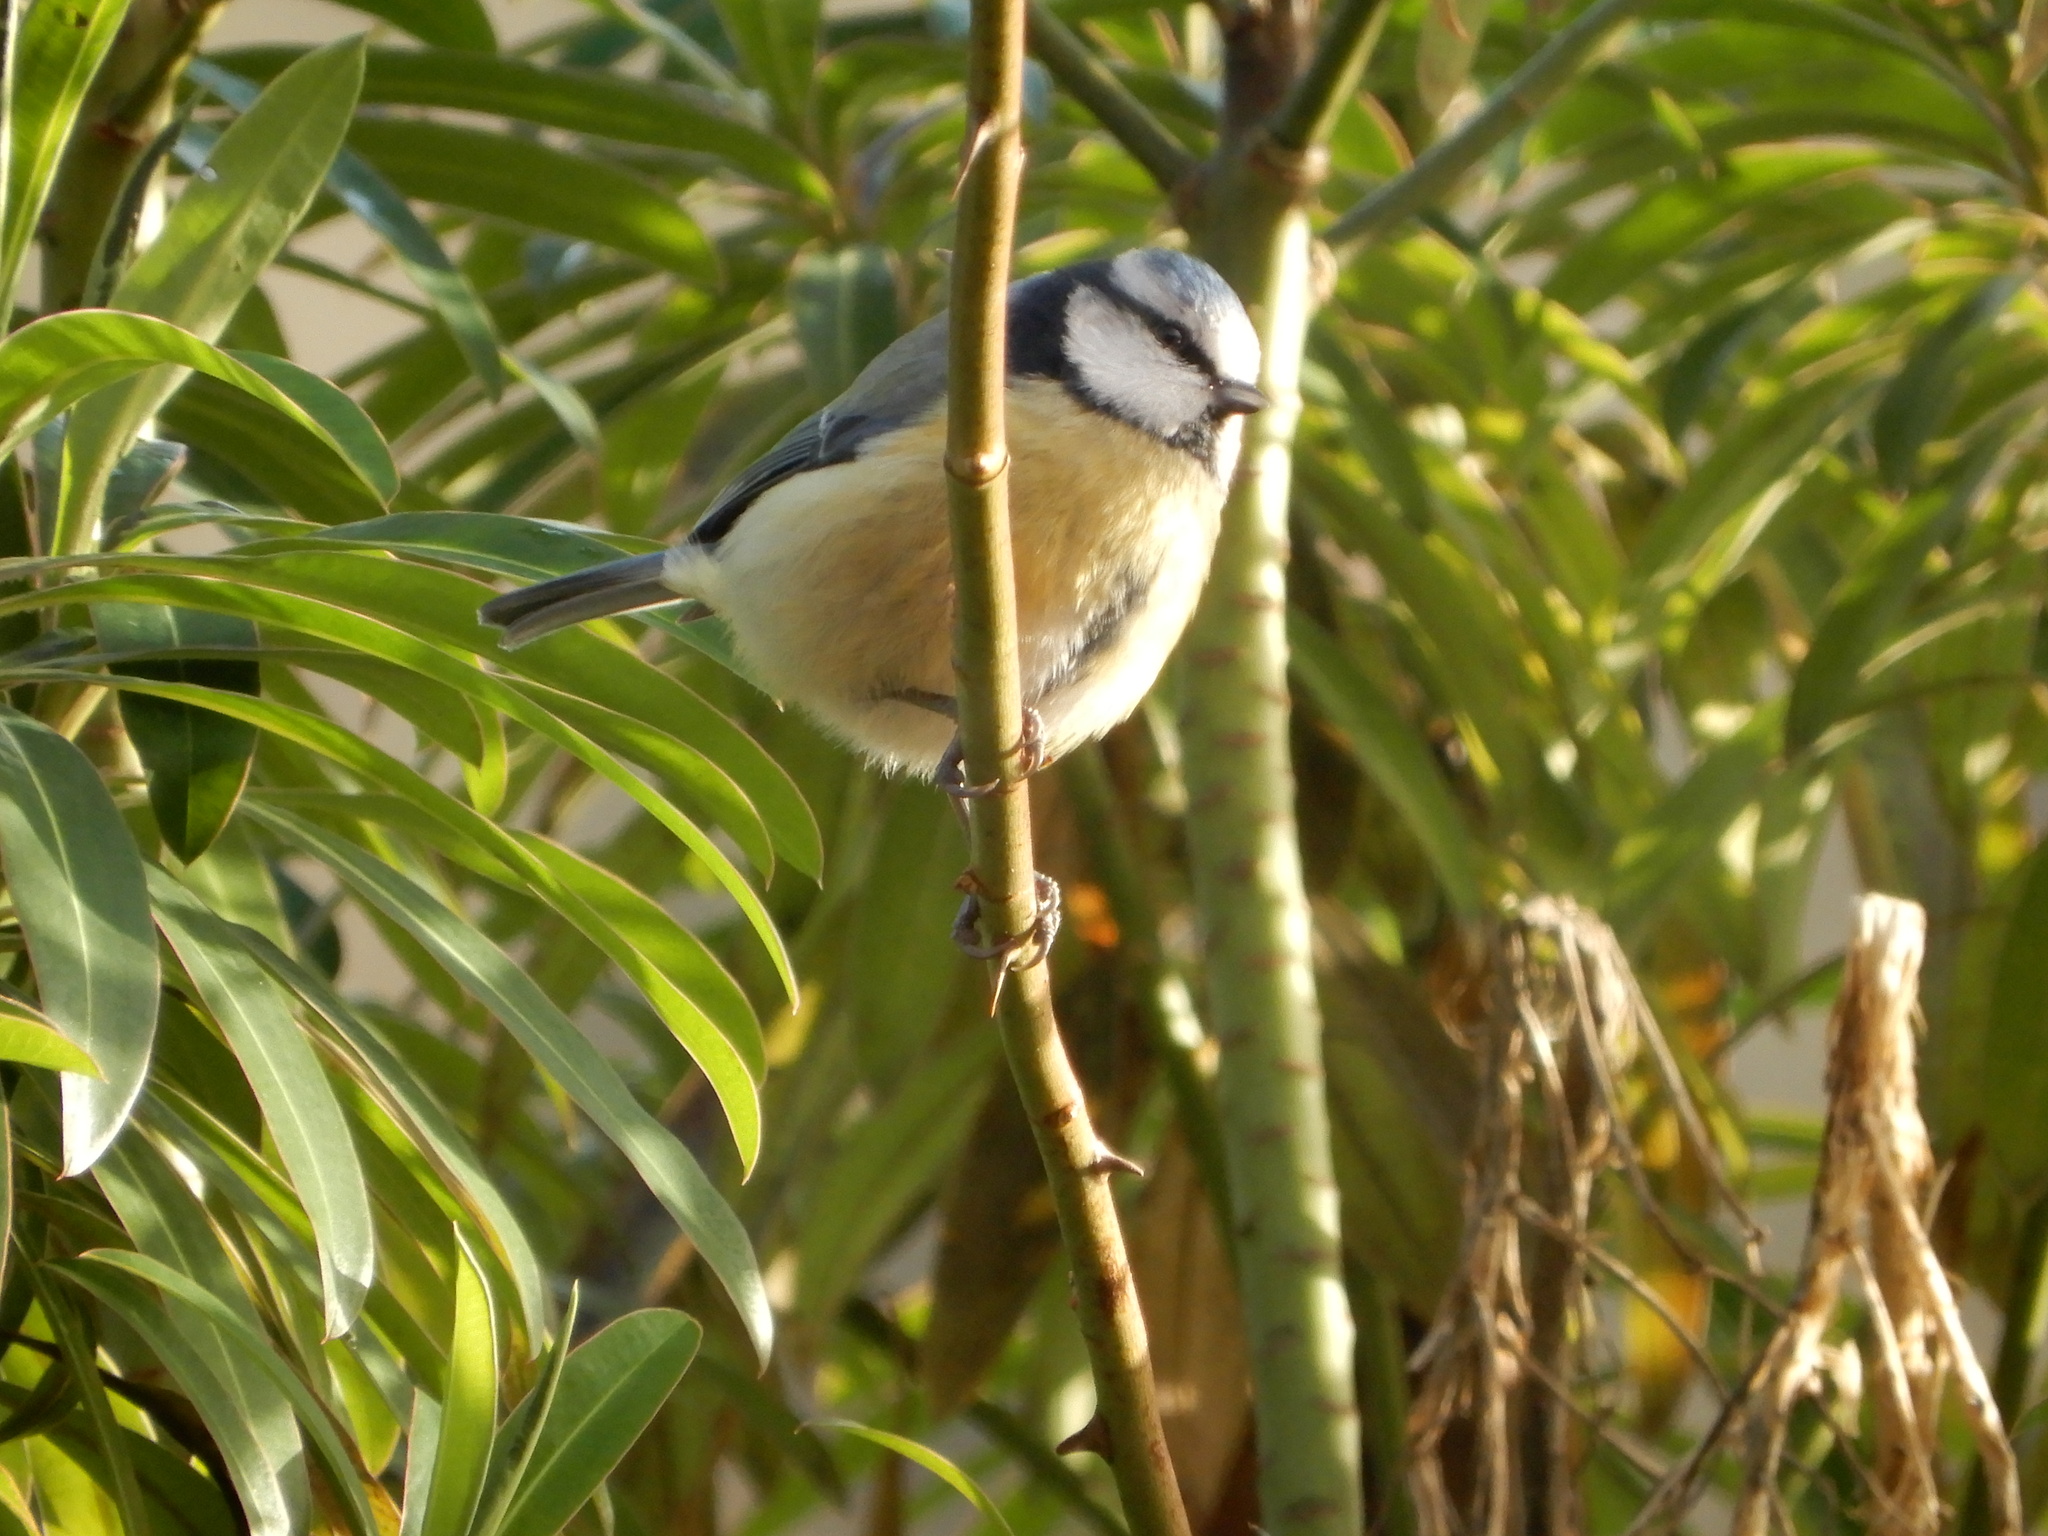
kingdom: Animalia
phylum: Chordata
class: Aves
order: Passeriformes
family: Paridae
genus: Cyanistes
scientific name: Cyanistes caeruleus
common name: Eurasian blue tit
